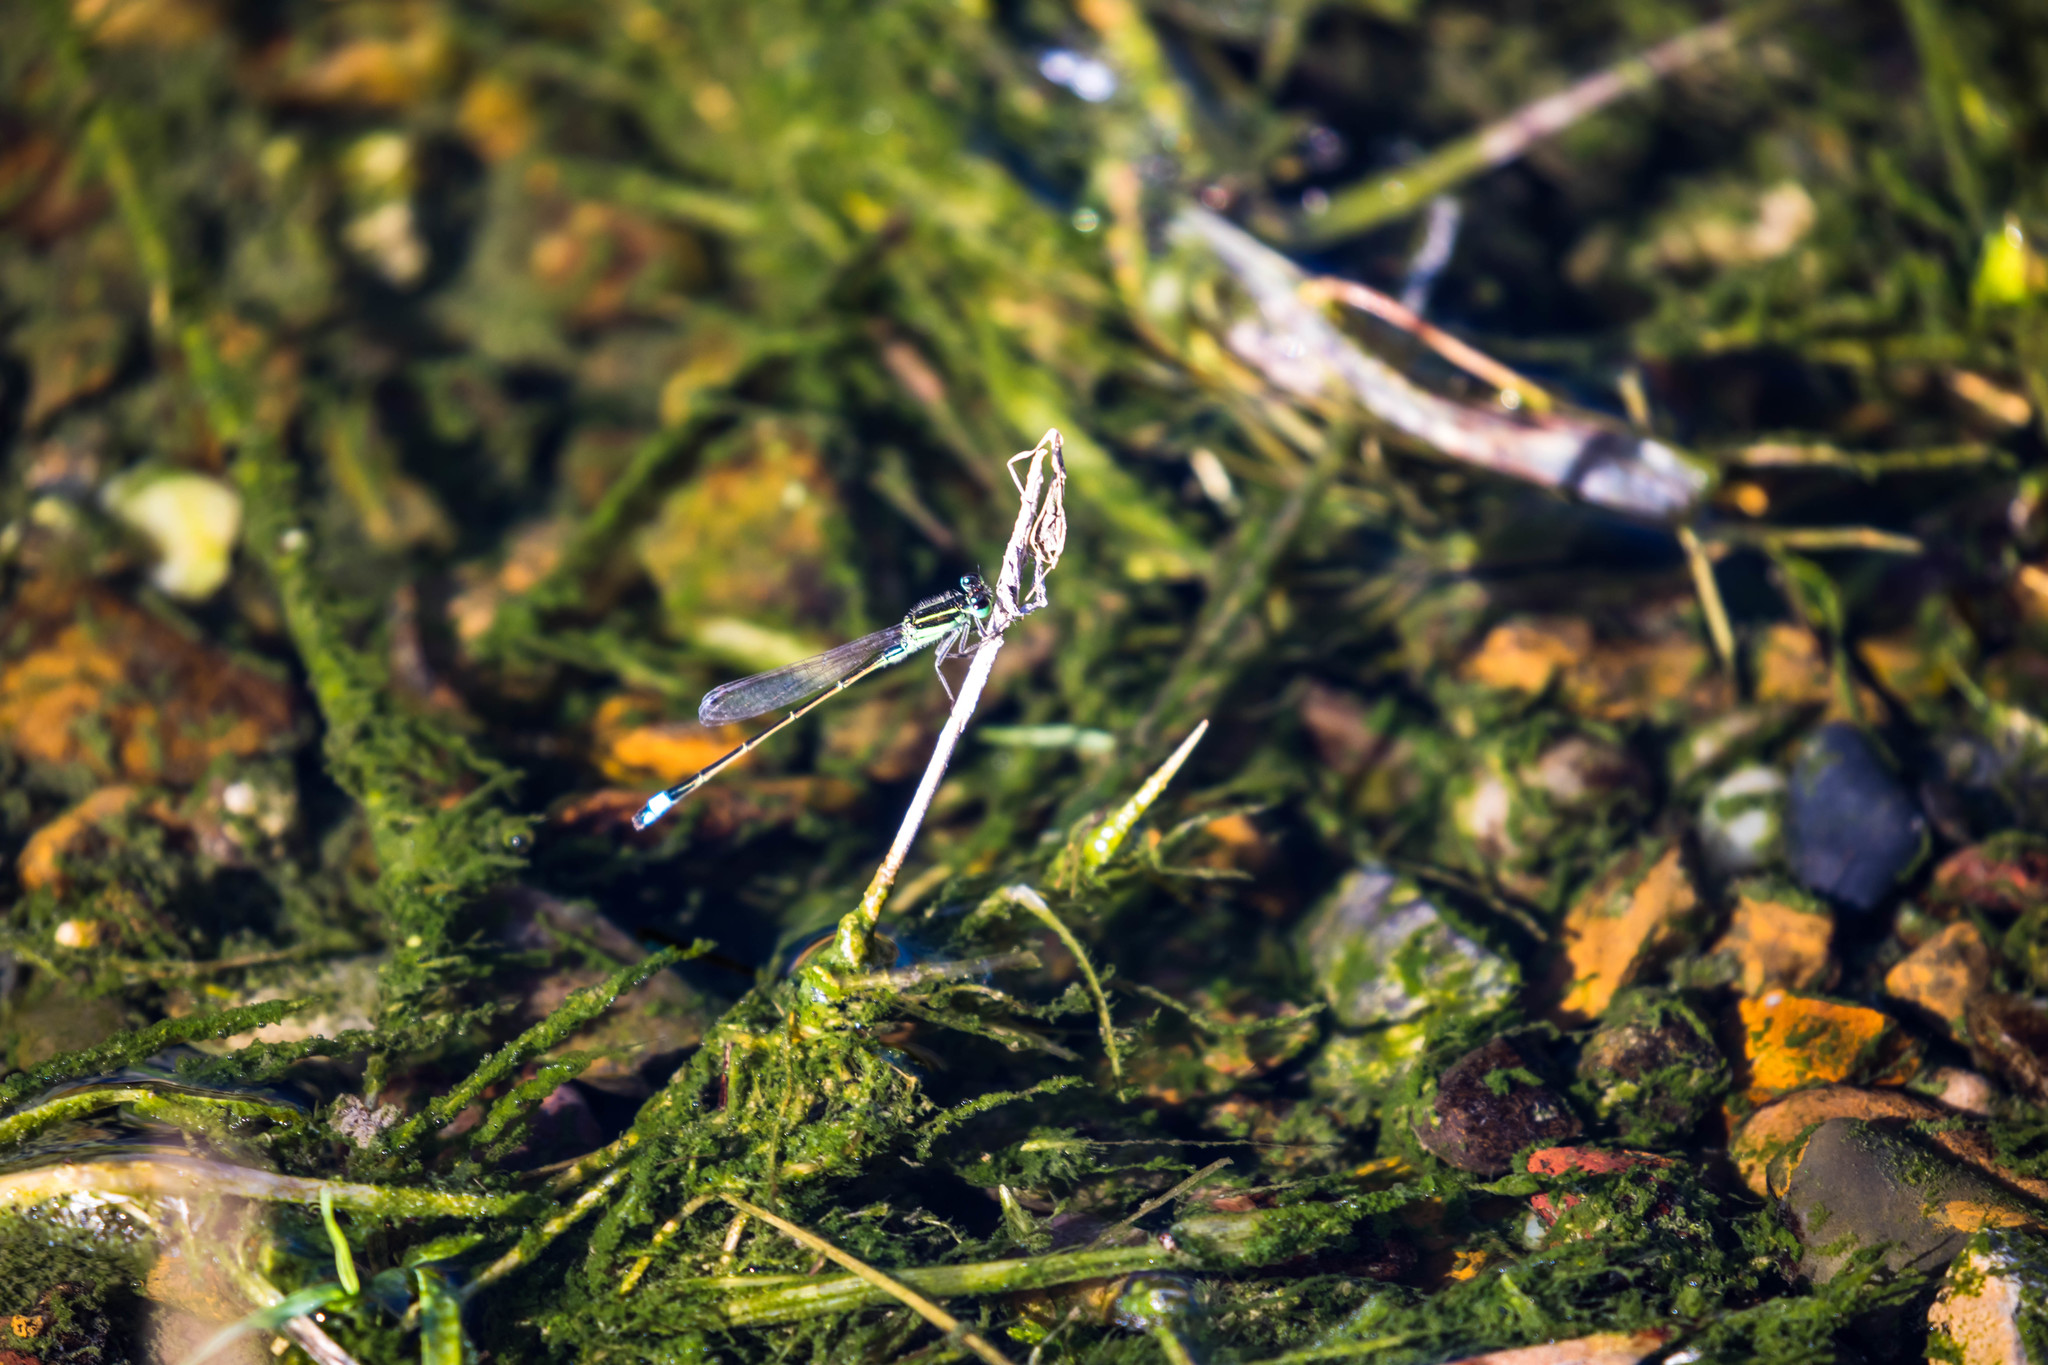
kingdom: Animalia
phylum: Arthropoda
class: Insecta
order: Odonata
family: Coenagrionidae
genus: Ischnura
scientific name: Ischnura ramburii
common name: Rambur's forktail
